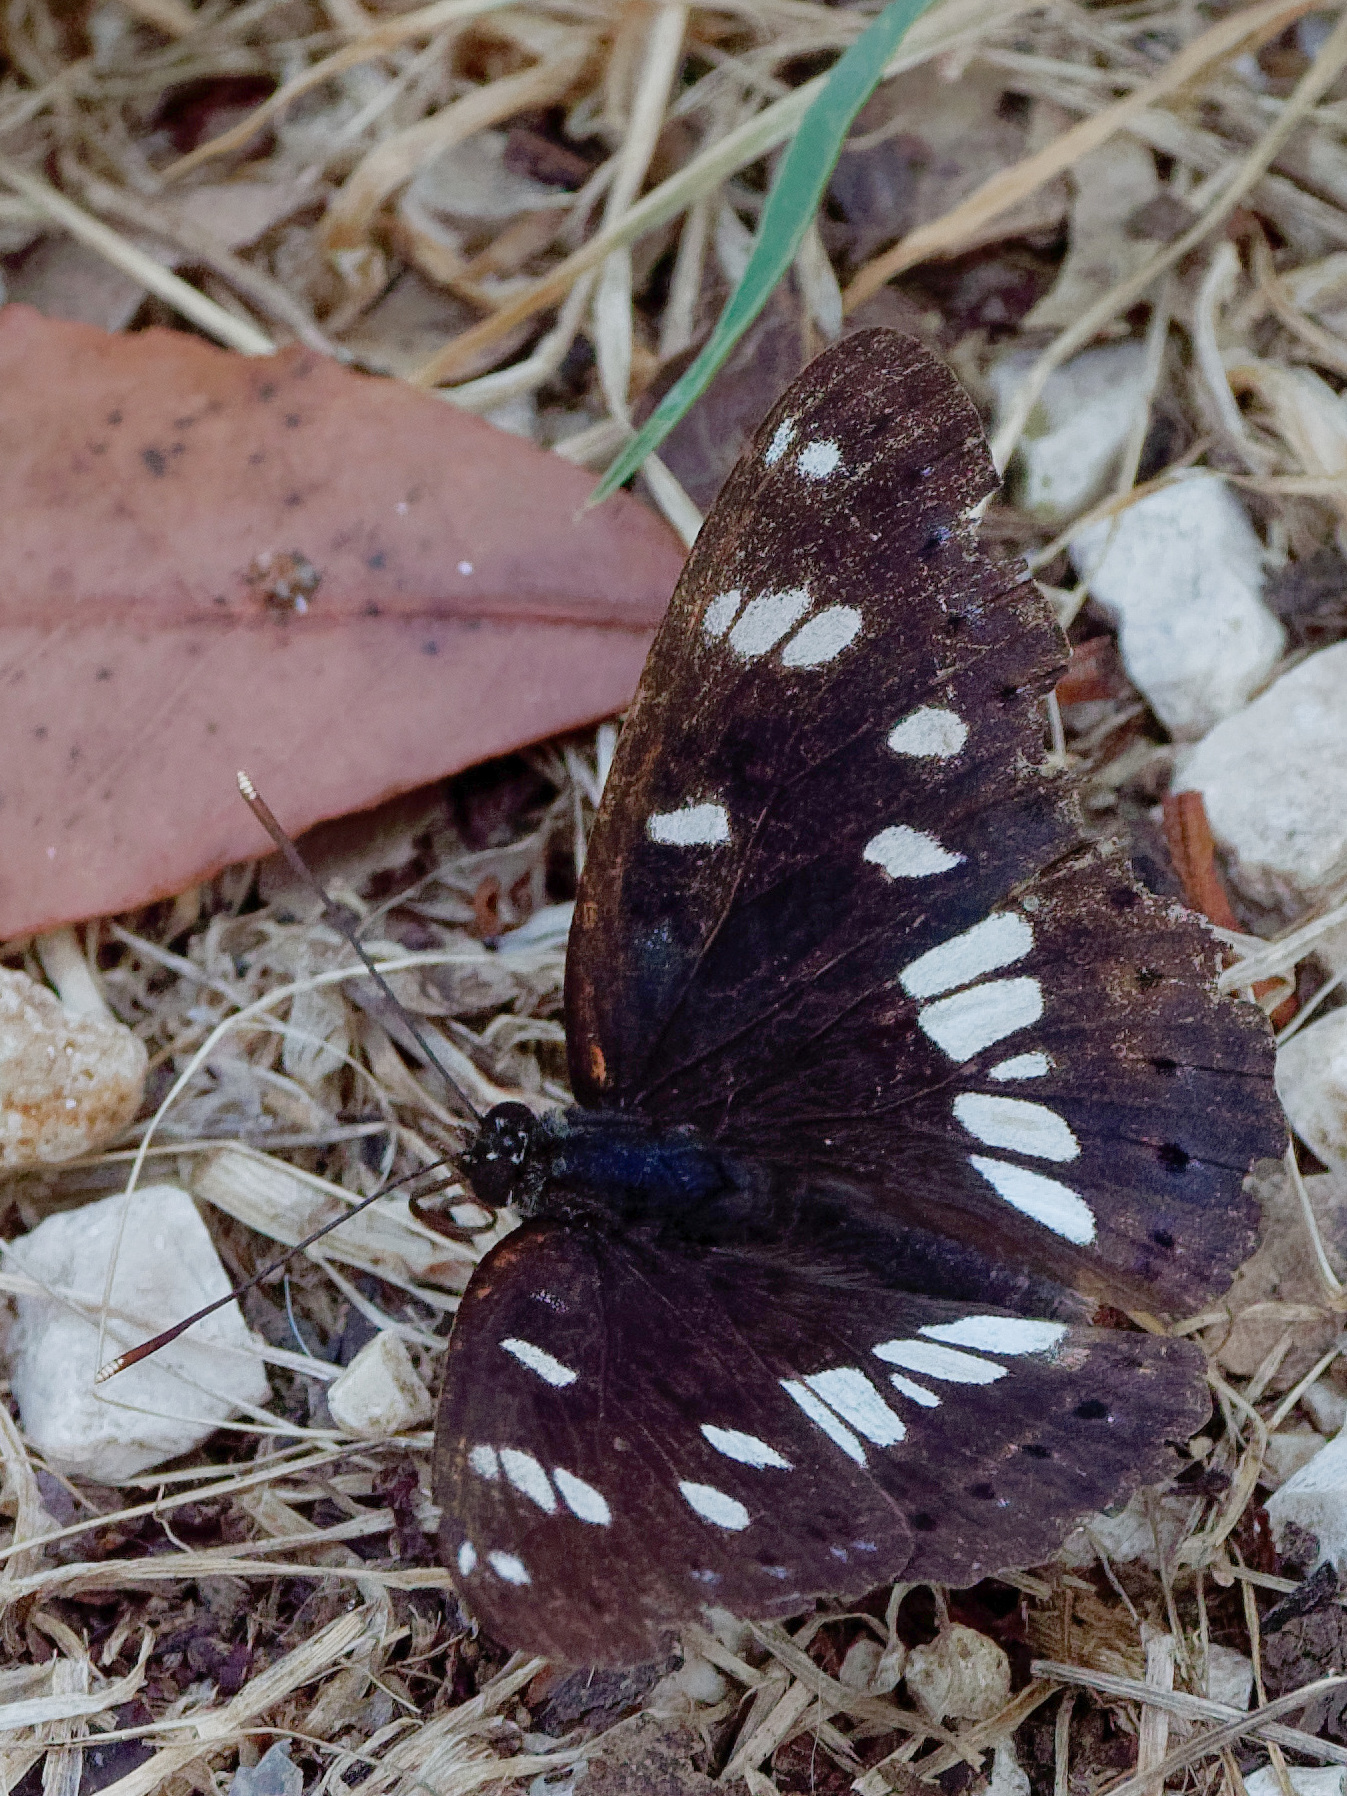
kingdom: Animalia
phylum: Arthropoda
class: Insecta
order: Lepidoptera
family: Nymphalidae
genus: Limenitis
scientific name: Limenitis reducta
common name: Southern white admiral
